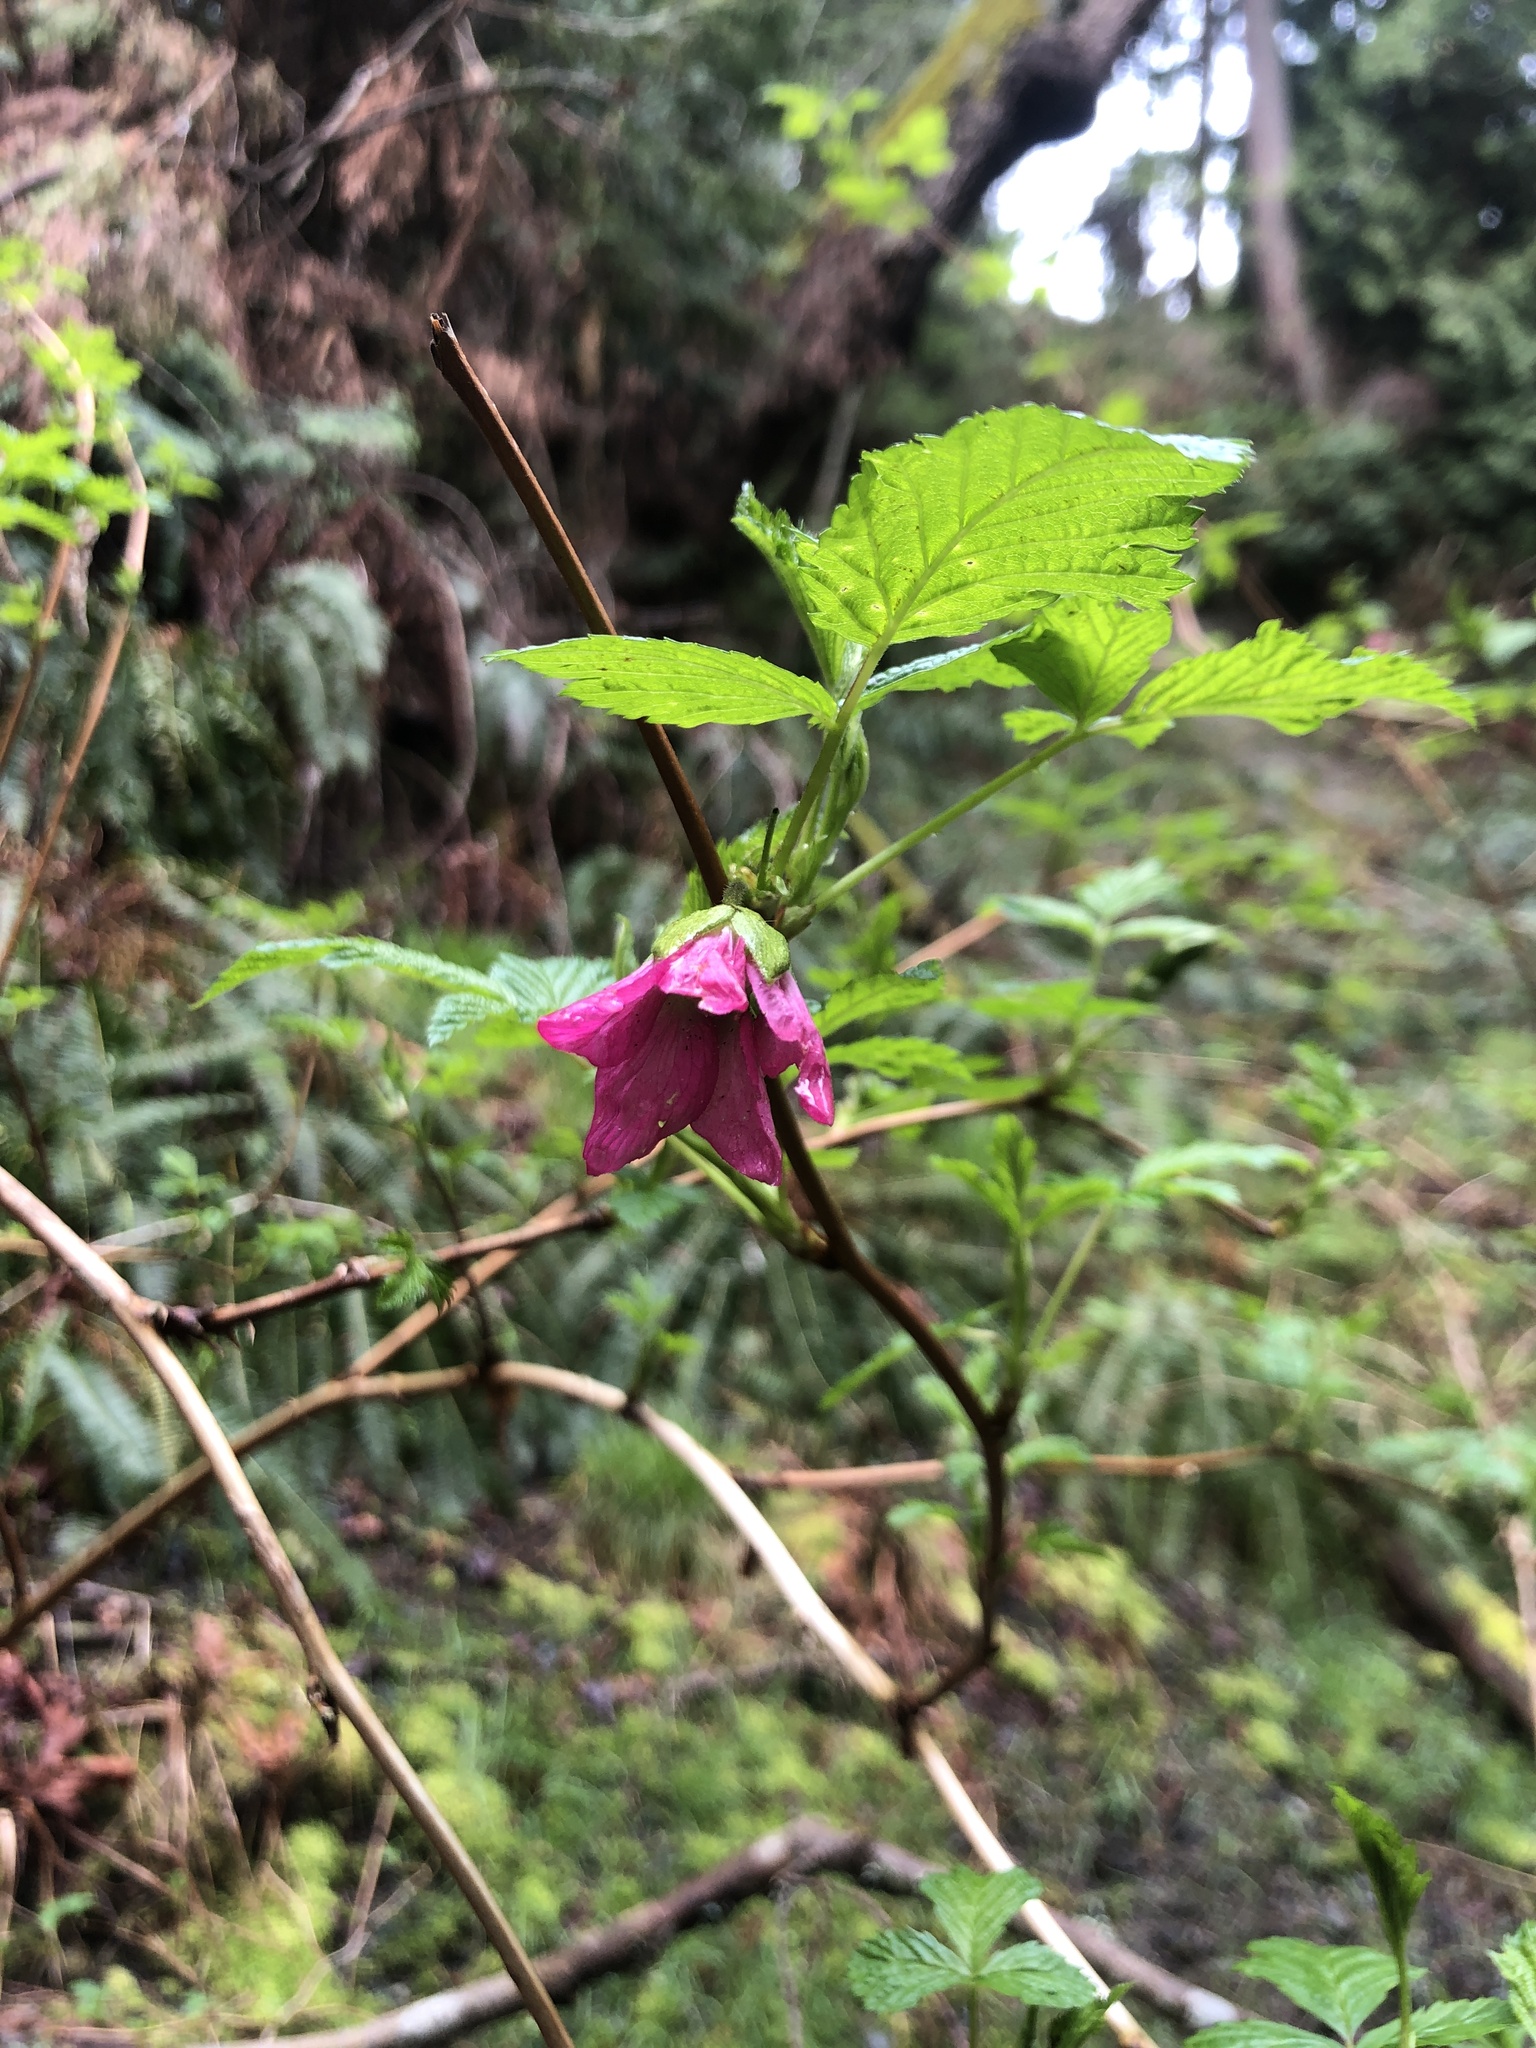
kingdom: Plantae
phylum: Tracheophyta
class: Magnoliopsida
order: Rosales
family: Rosaceae
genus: Rubus
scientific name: Rubus spectabilis
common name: Salmonberry
